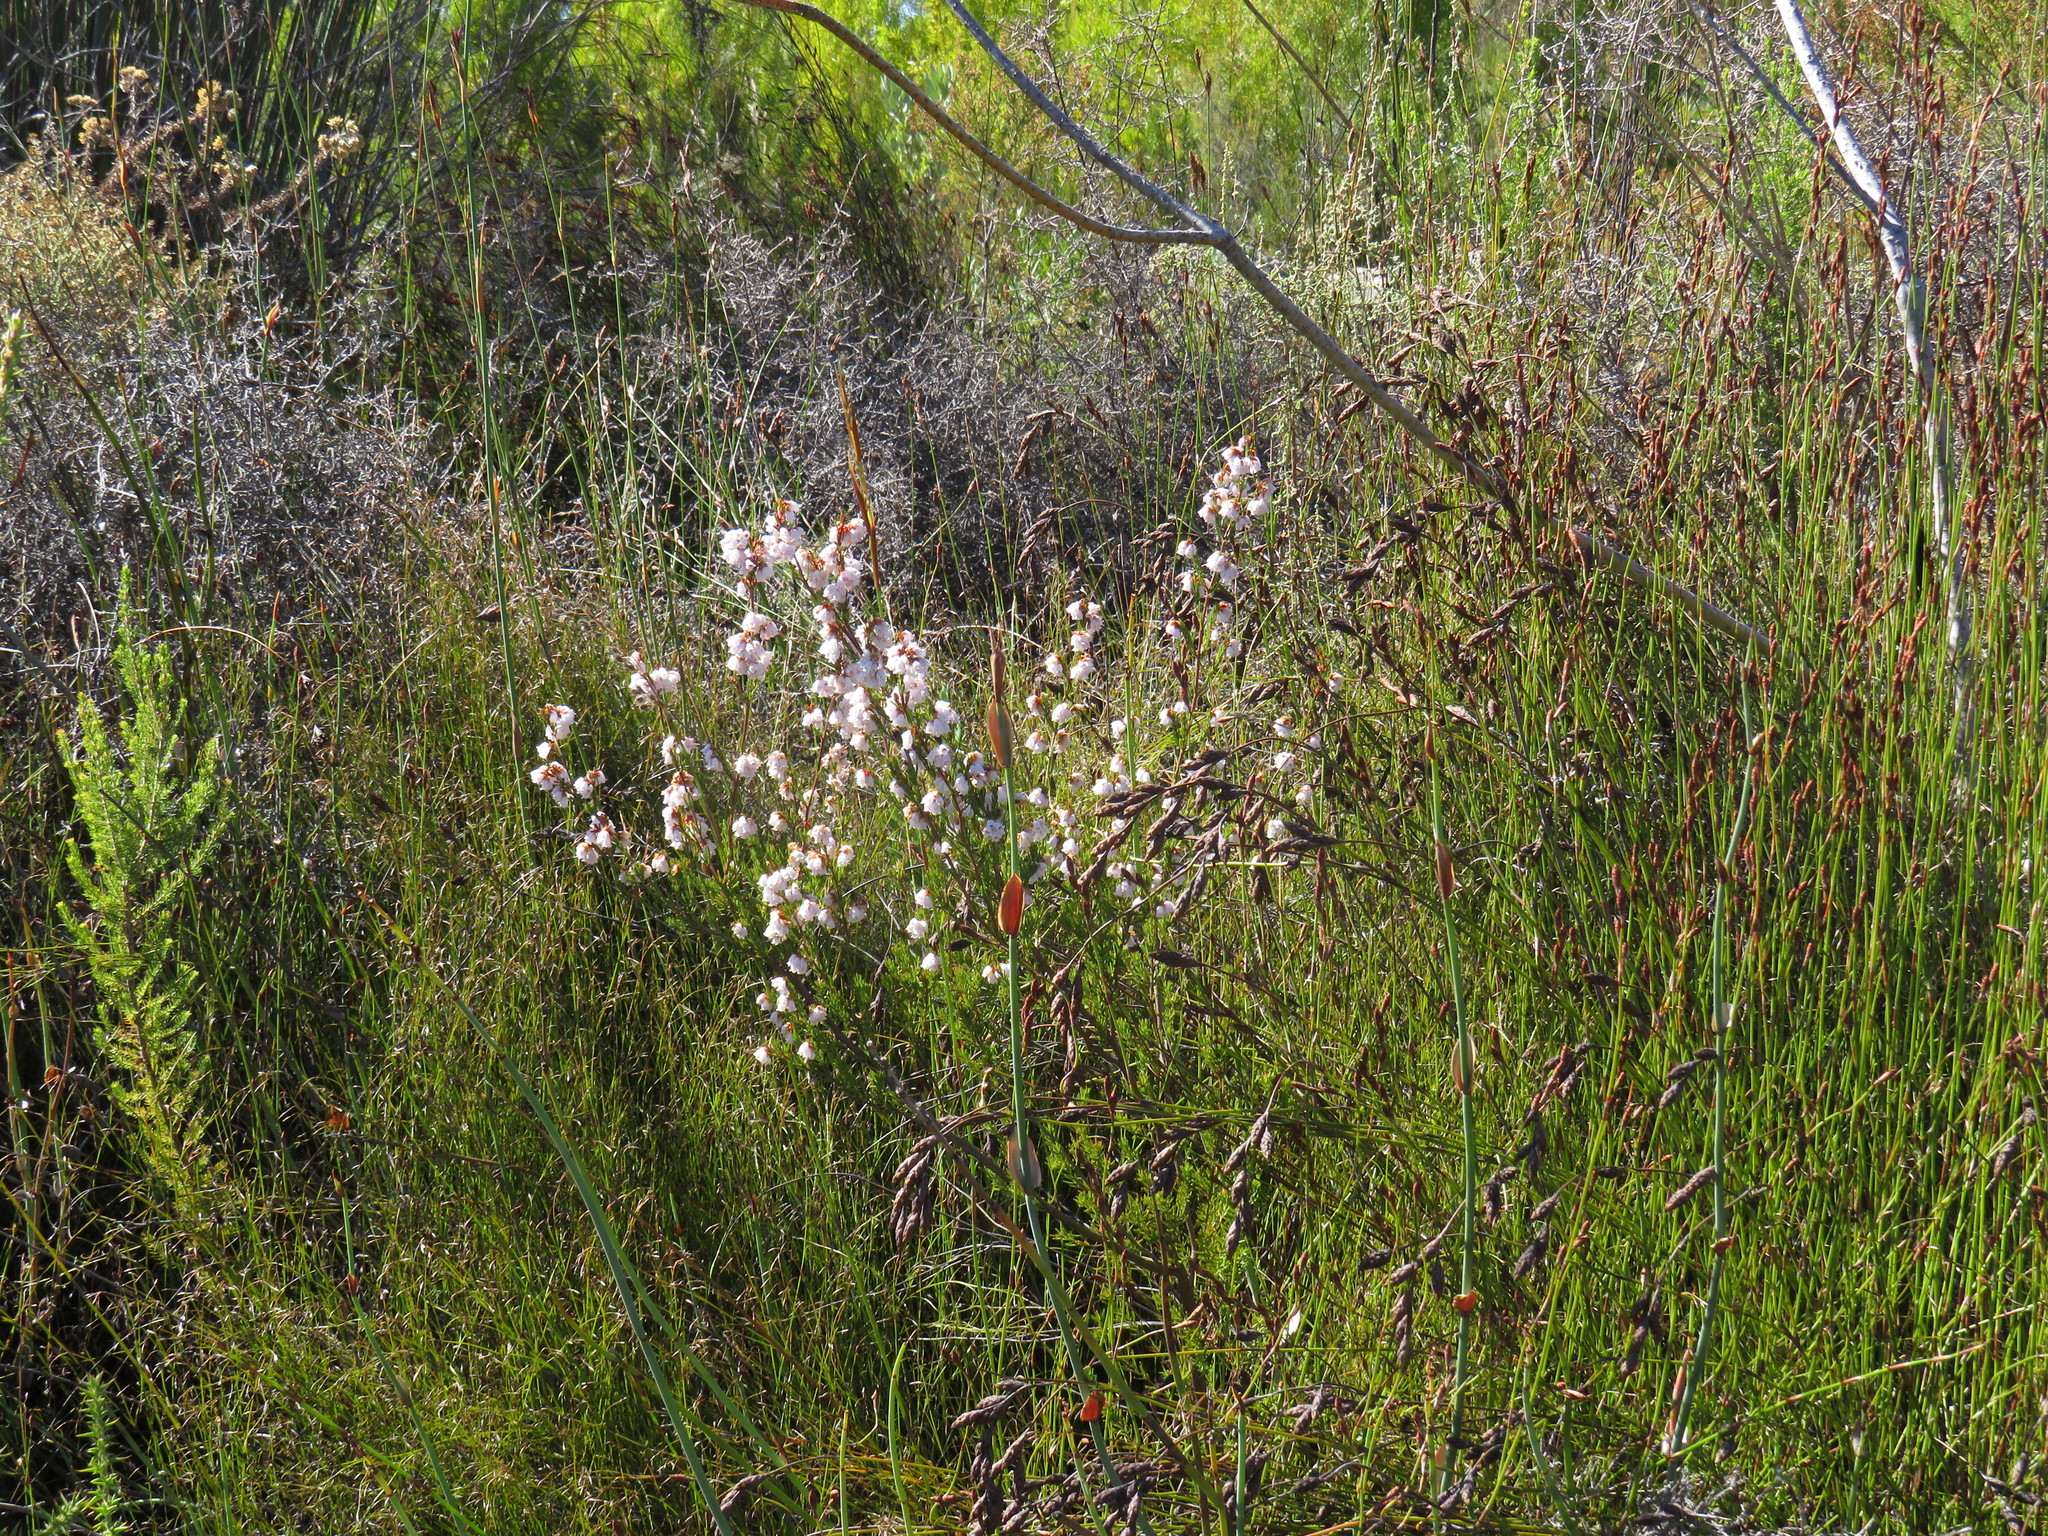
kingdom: Plantae
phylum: Tracheophyta
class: Magnoliopsida
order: Ericales
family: Ericaceae
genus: Erica
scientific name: Erica oxysepala
